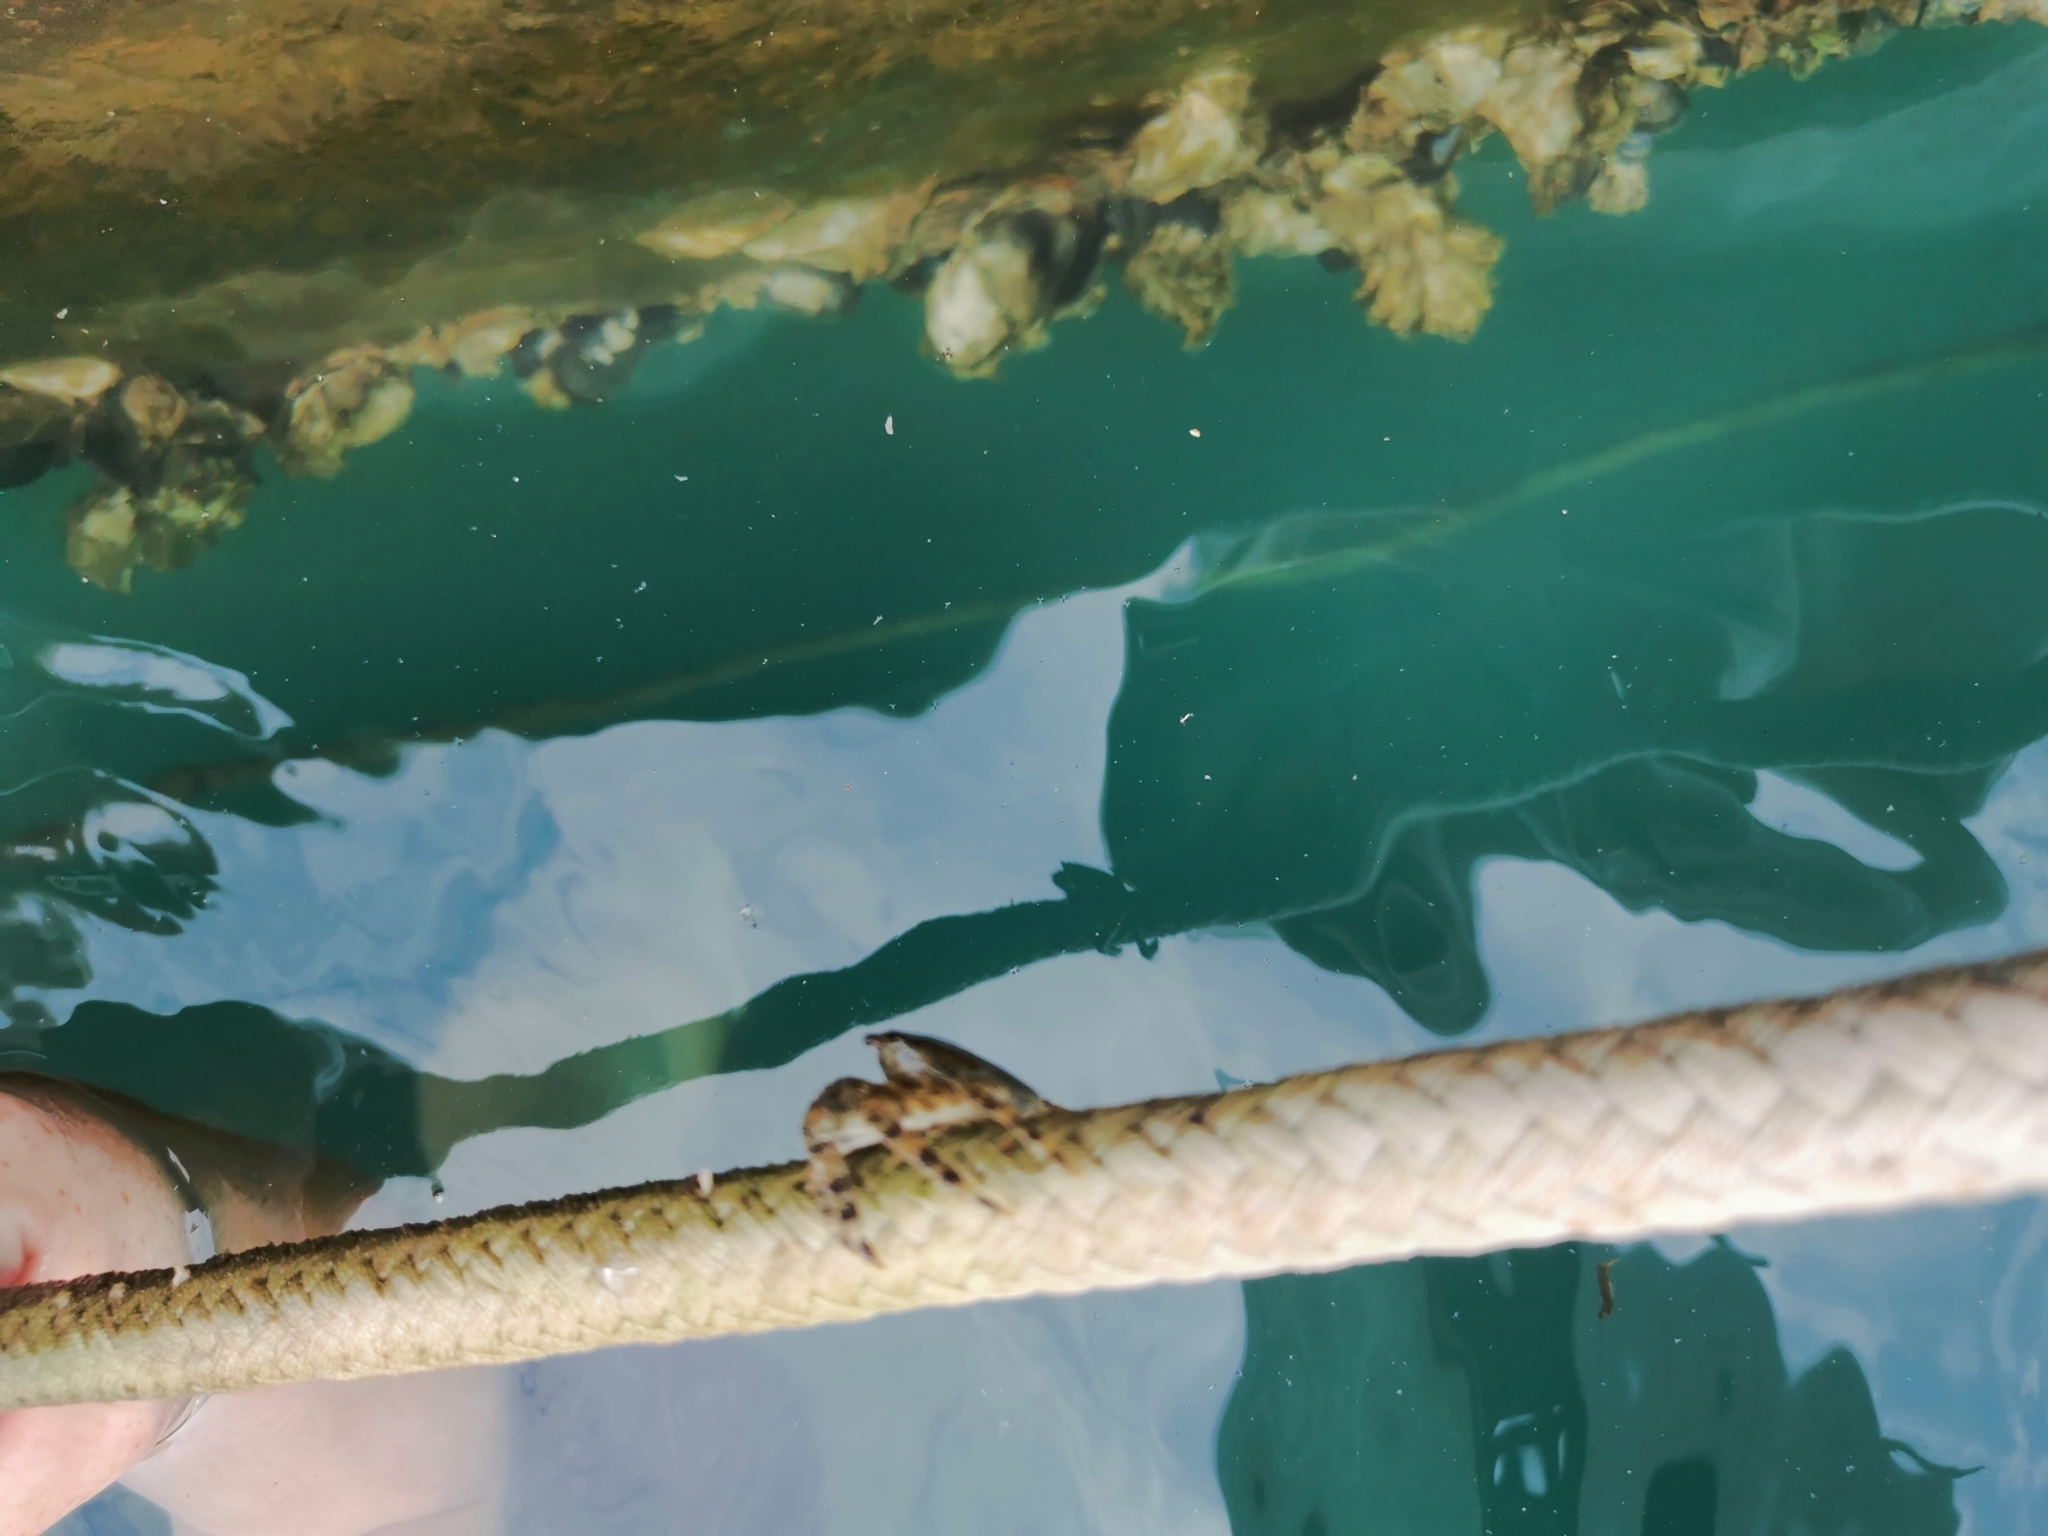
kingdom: Animalia
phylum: Arthropoda
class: Malacostraca
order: Decapoda
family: Grapsidae
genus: Pachygrapsus
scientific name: Pachygrapsus marmoratus
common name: Marbled rock crab
